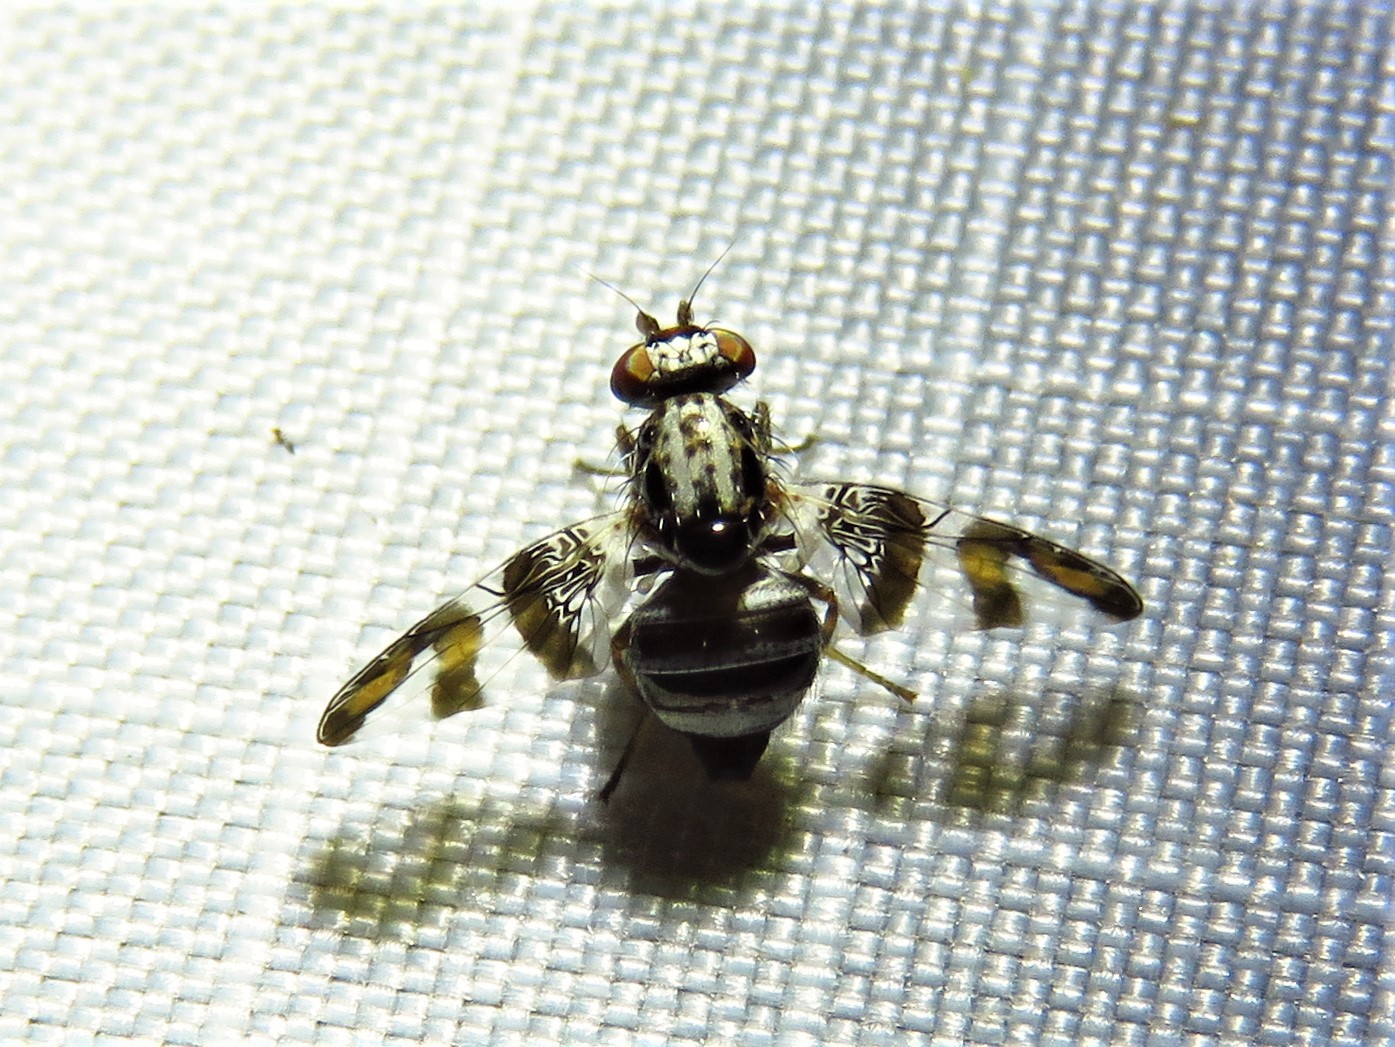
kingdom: Animalia
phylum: Arthropoda
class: Insecta
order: Diptera
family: Ulidiidae
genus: Dyscrasis
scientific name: Dyscrasis hendeli
